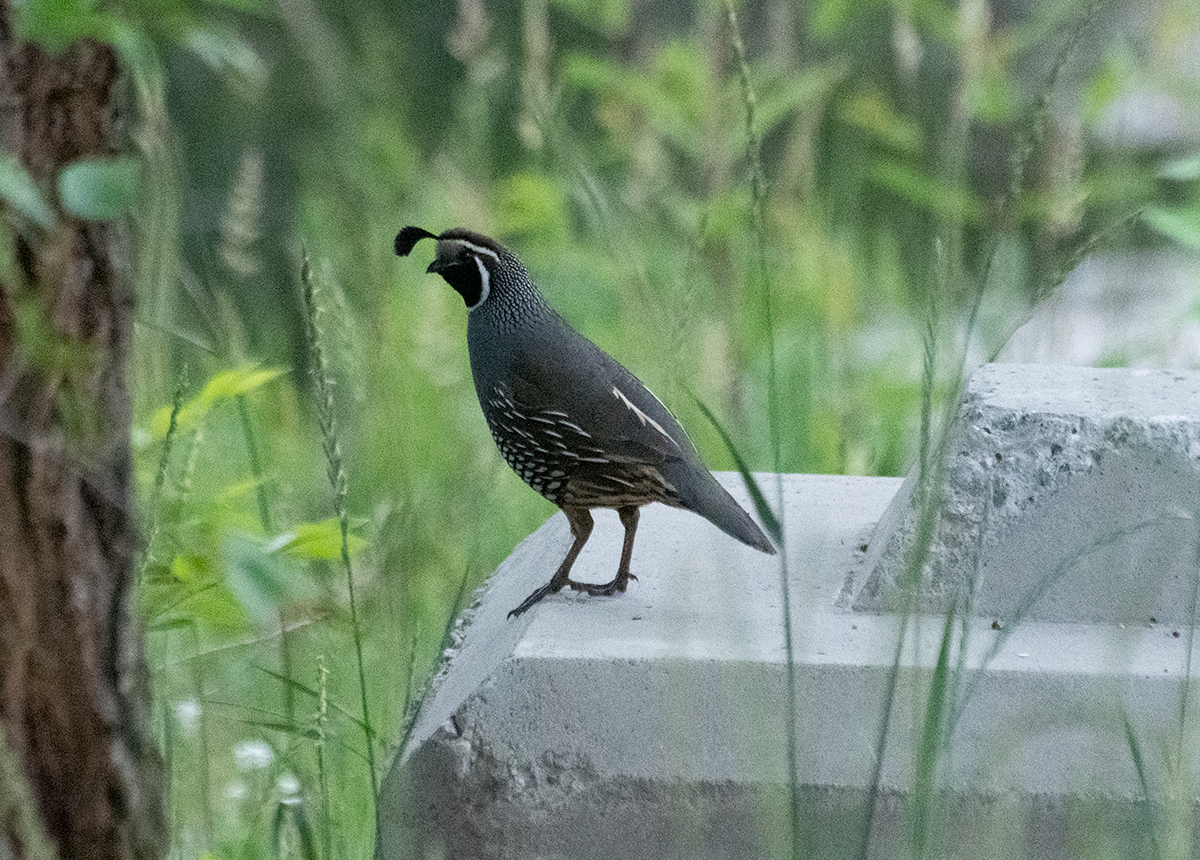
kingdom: Animalia
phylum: Chordata
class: Aves
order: Galliformes
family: Odontophoridae
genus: Callipepla
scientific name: Callipepla californica
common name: California quail
